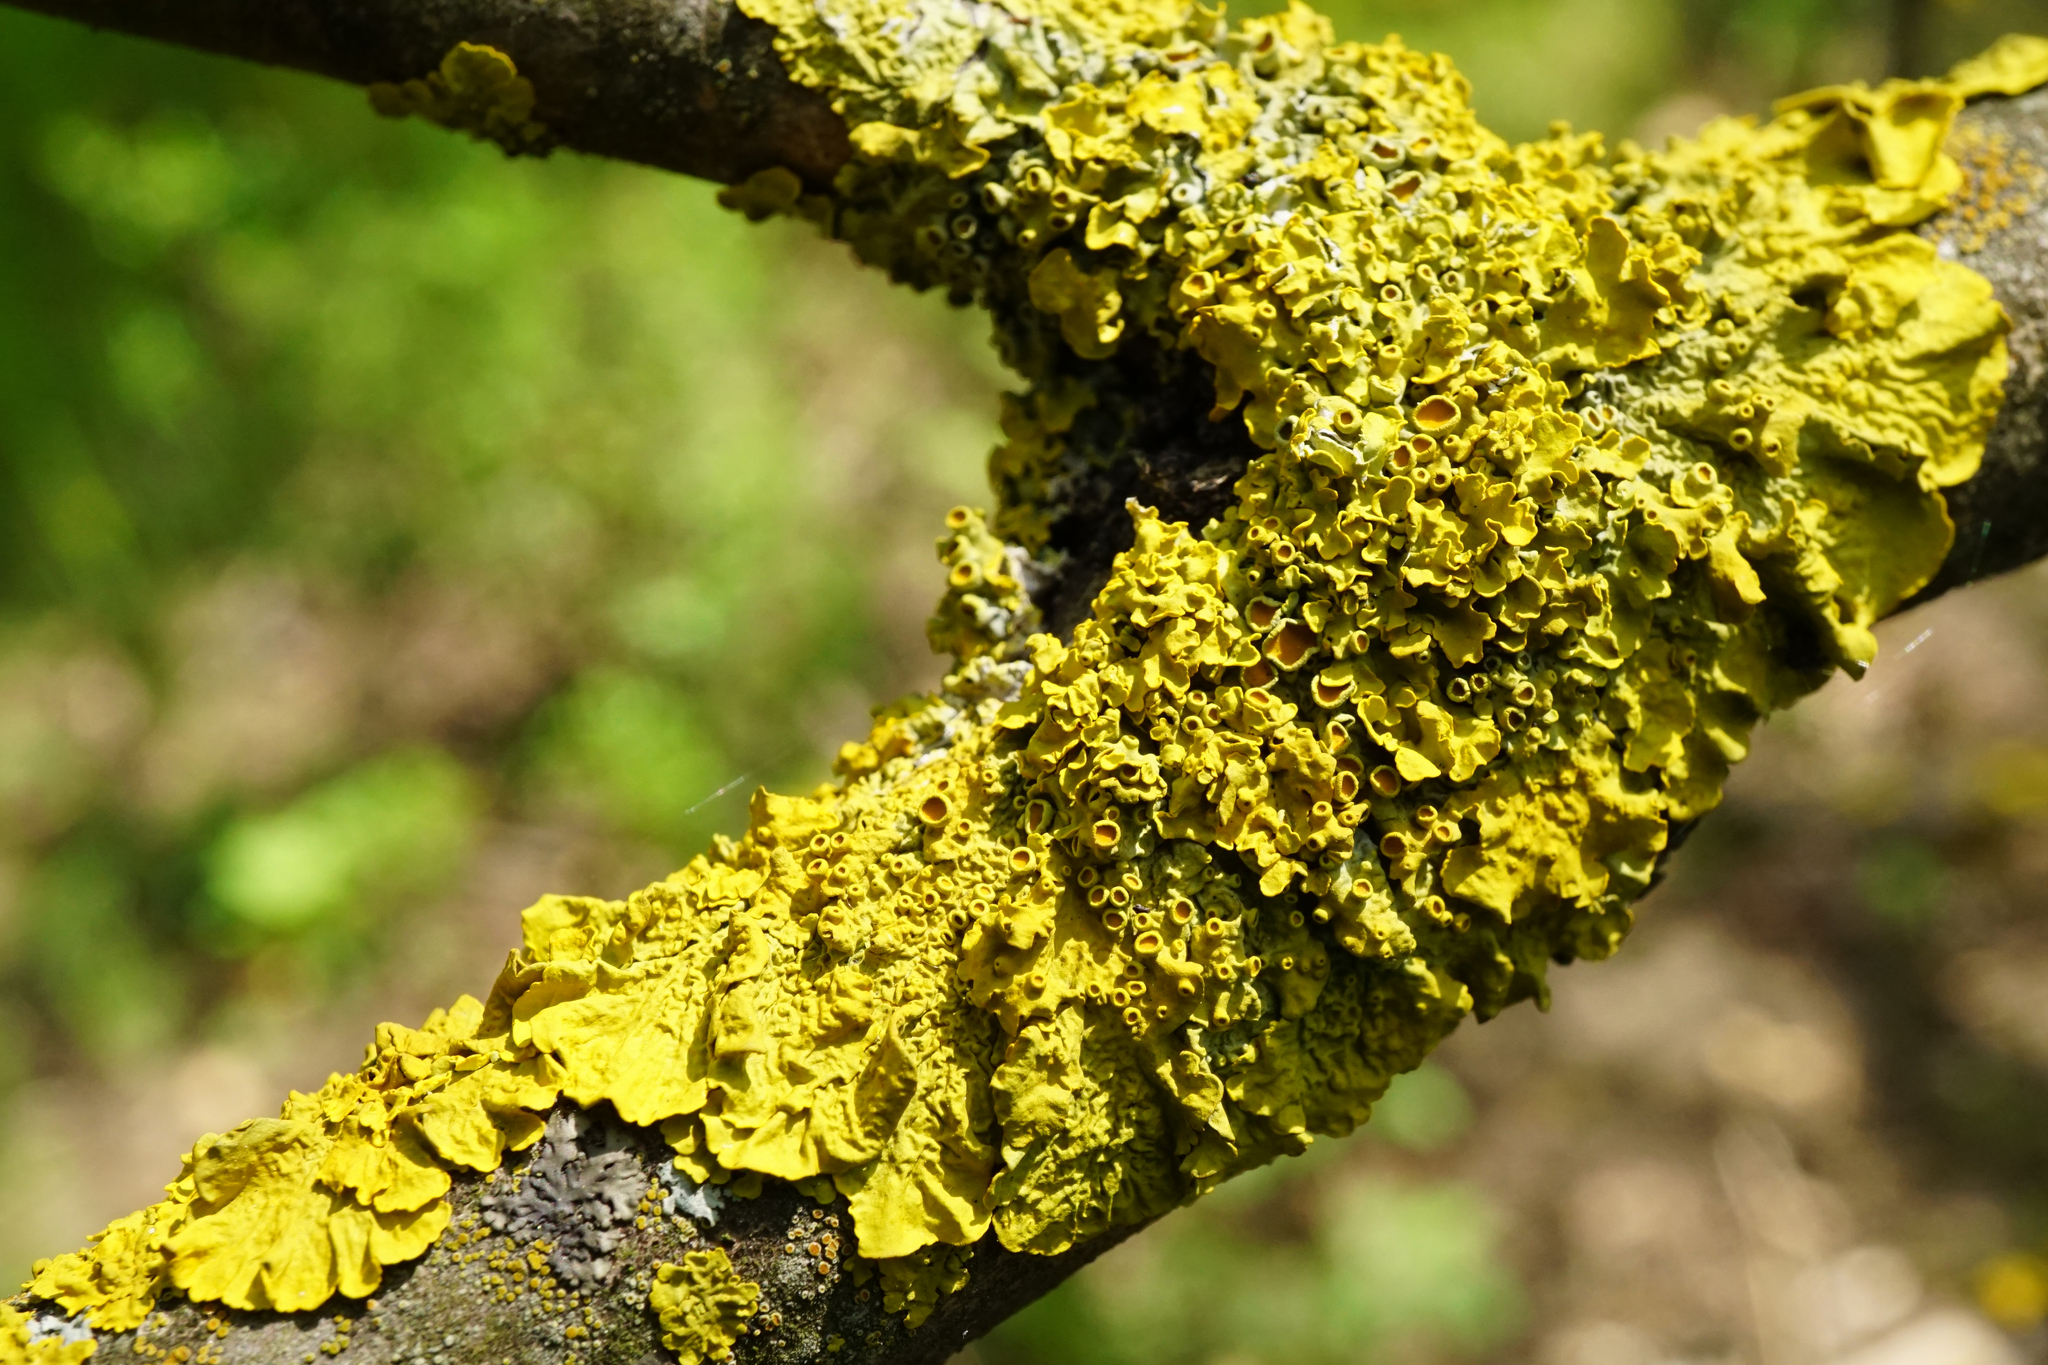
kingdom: Fungi
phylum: Ascomycota
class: Lecanoromycetes
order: Teloschistales
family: Teloschistaceae
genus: Xanthoria
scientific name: Xanthoria parietina
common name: Common orange lichen
